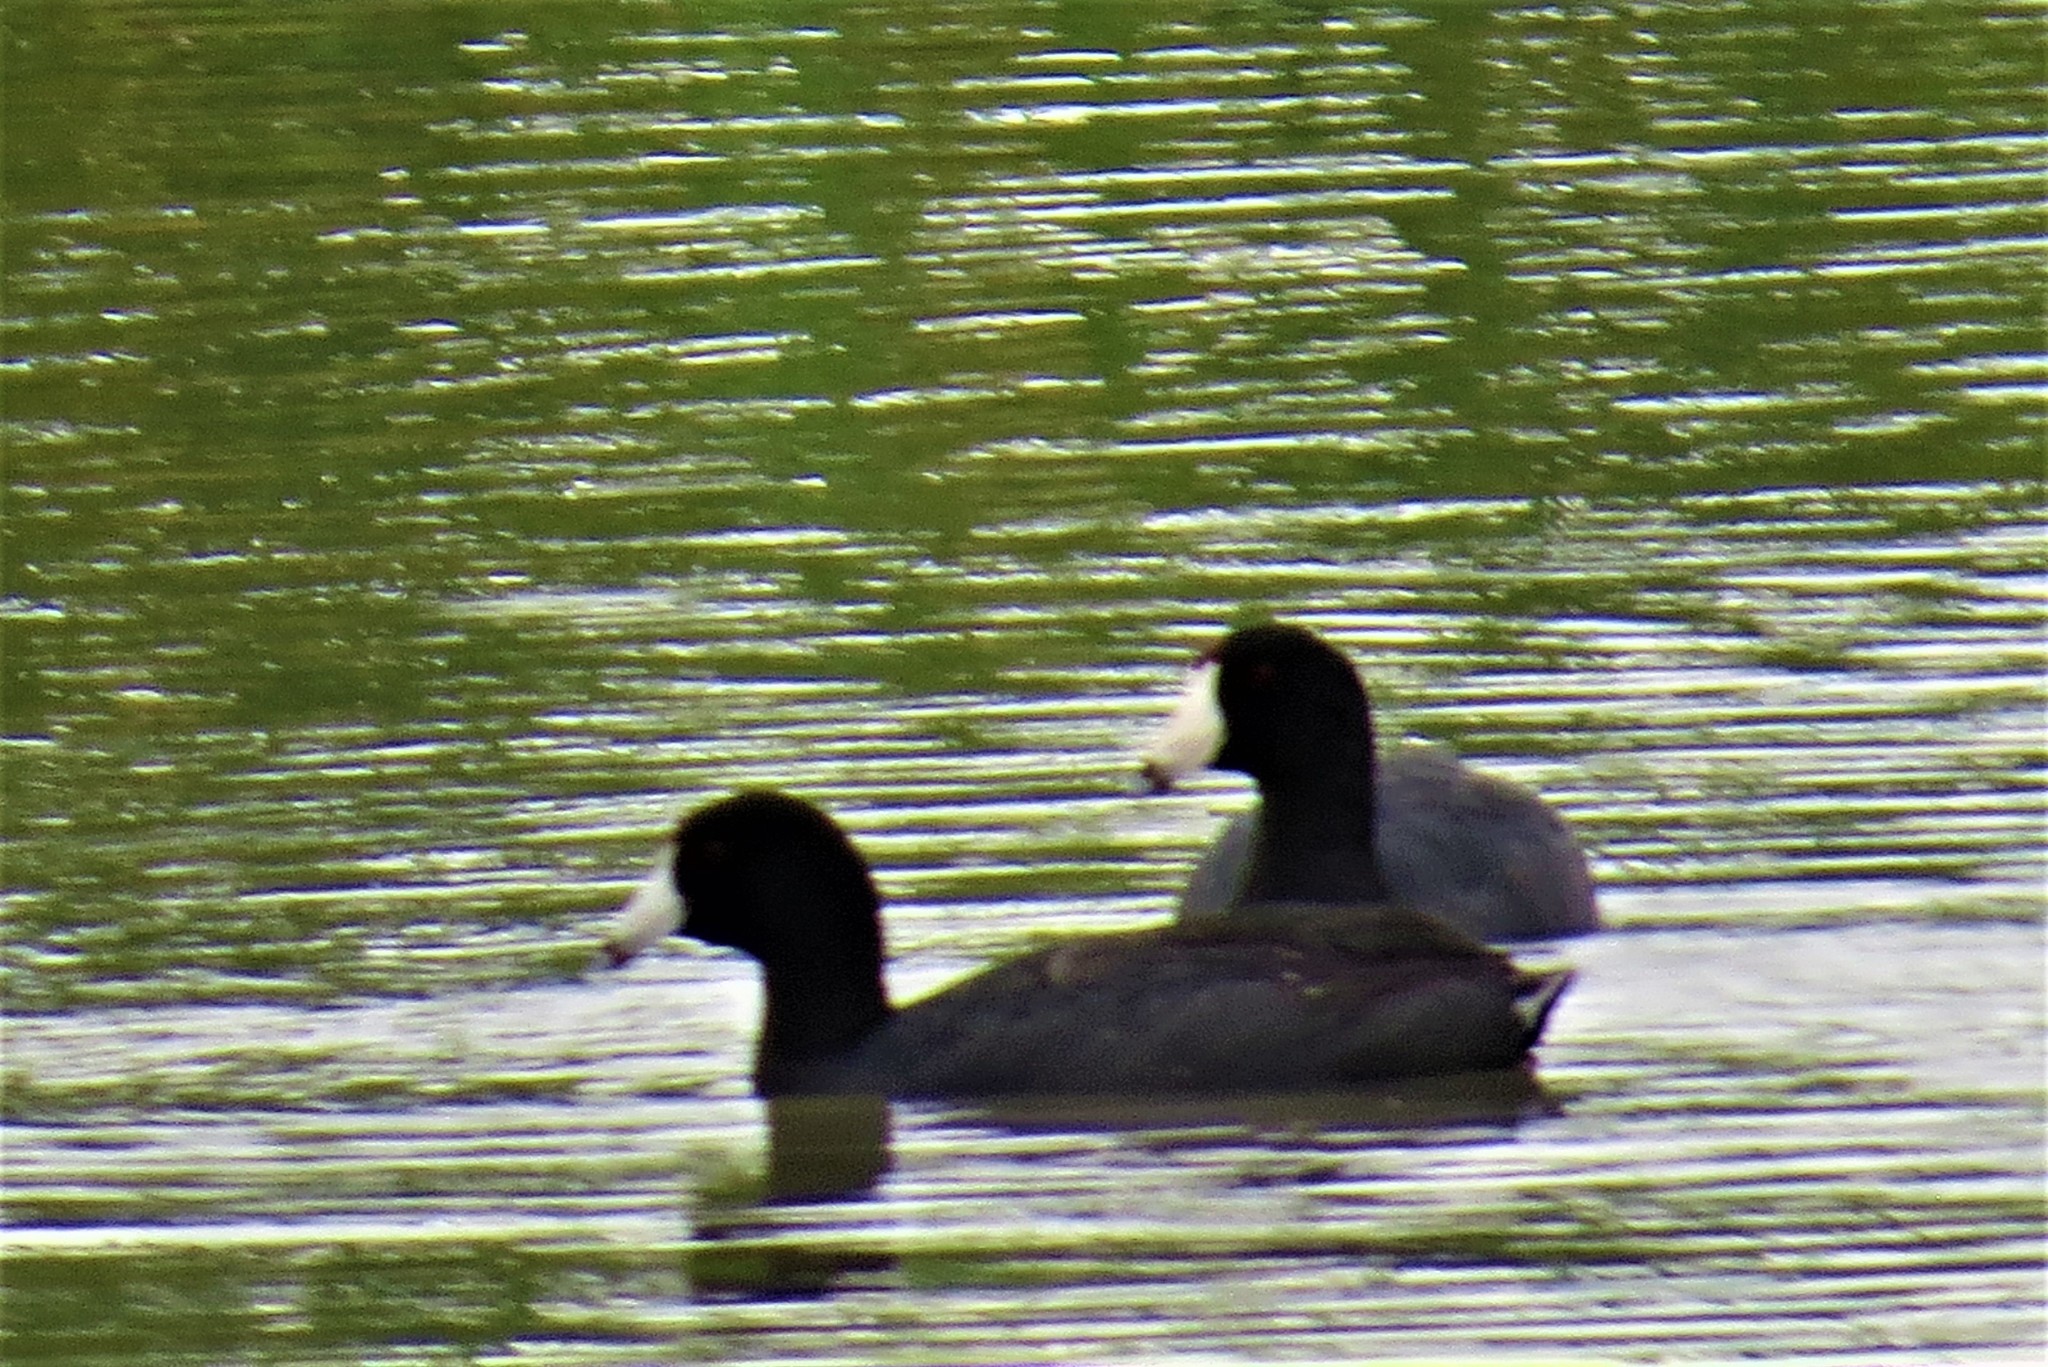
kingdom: Animalia
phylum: Chordata
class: Aves
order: Gruiformes
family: Rallidae
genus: Fulica
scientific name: Fulica americana
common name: American coot
